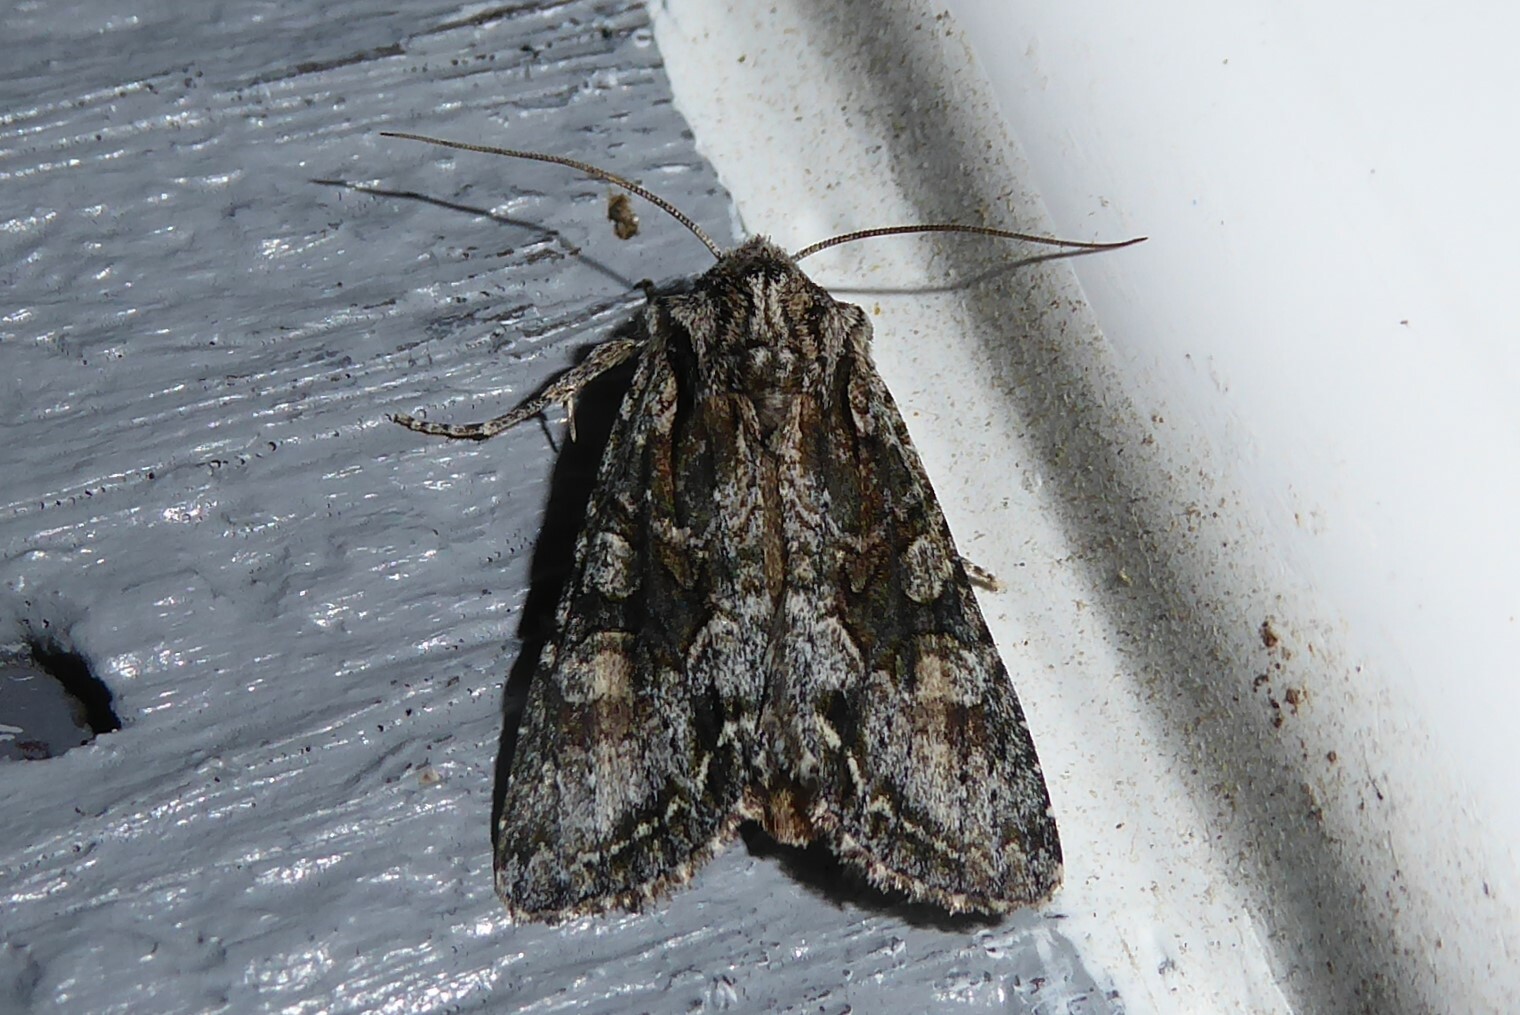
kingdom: Animalia
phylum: Arthropoda
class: Insecta
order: Lepidoptera
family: Noctuidae
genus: Ichneutica
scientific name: Ichneutica mutans
